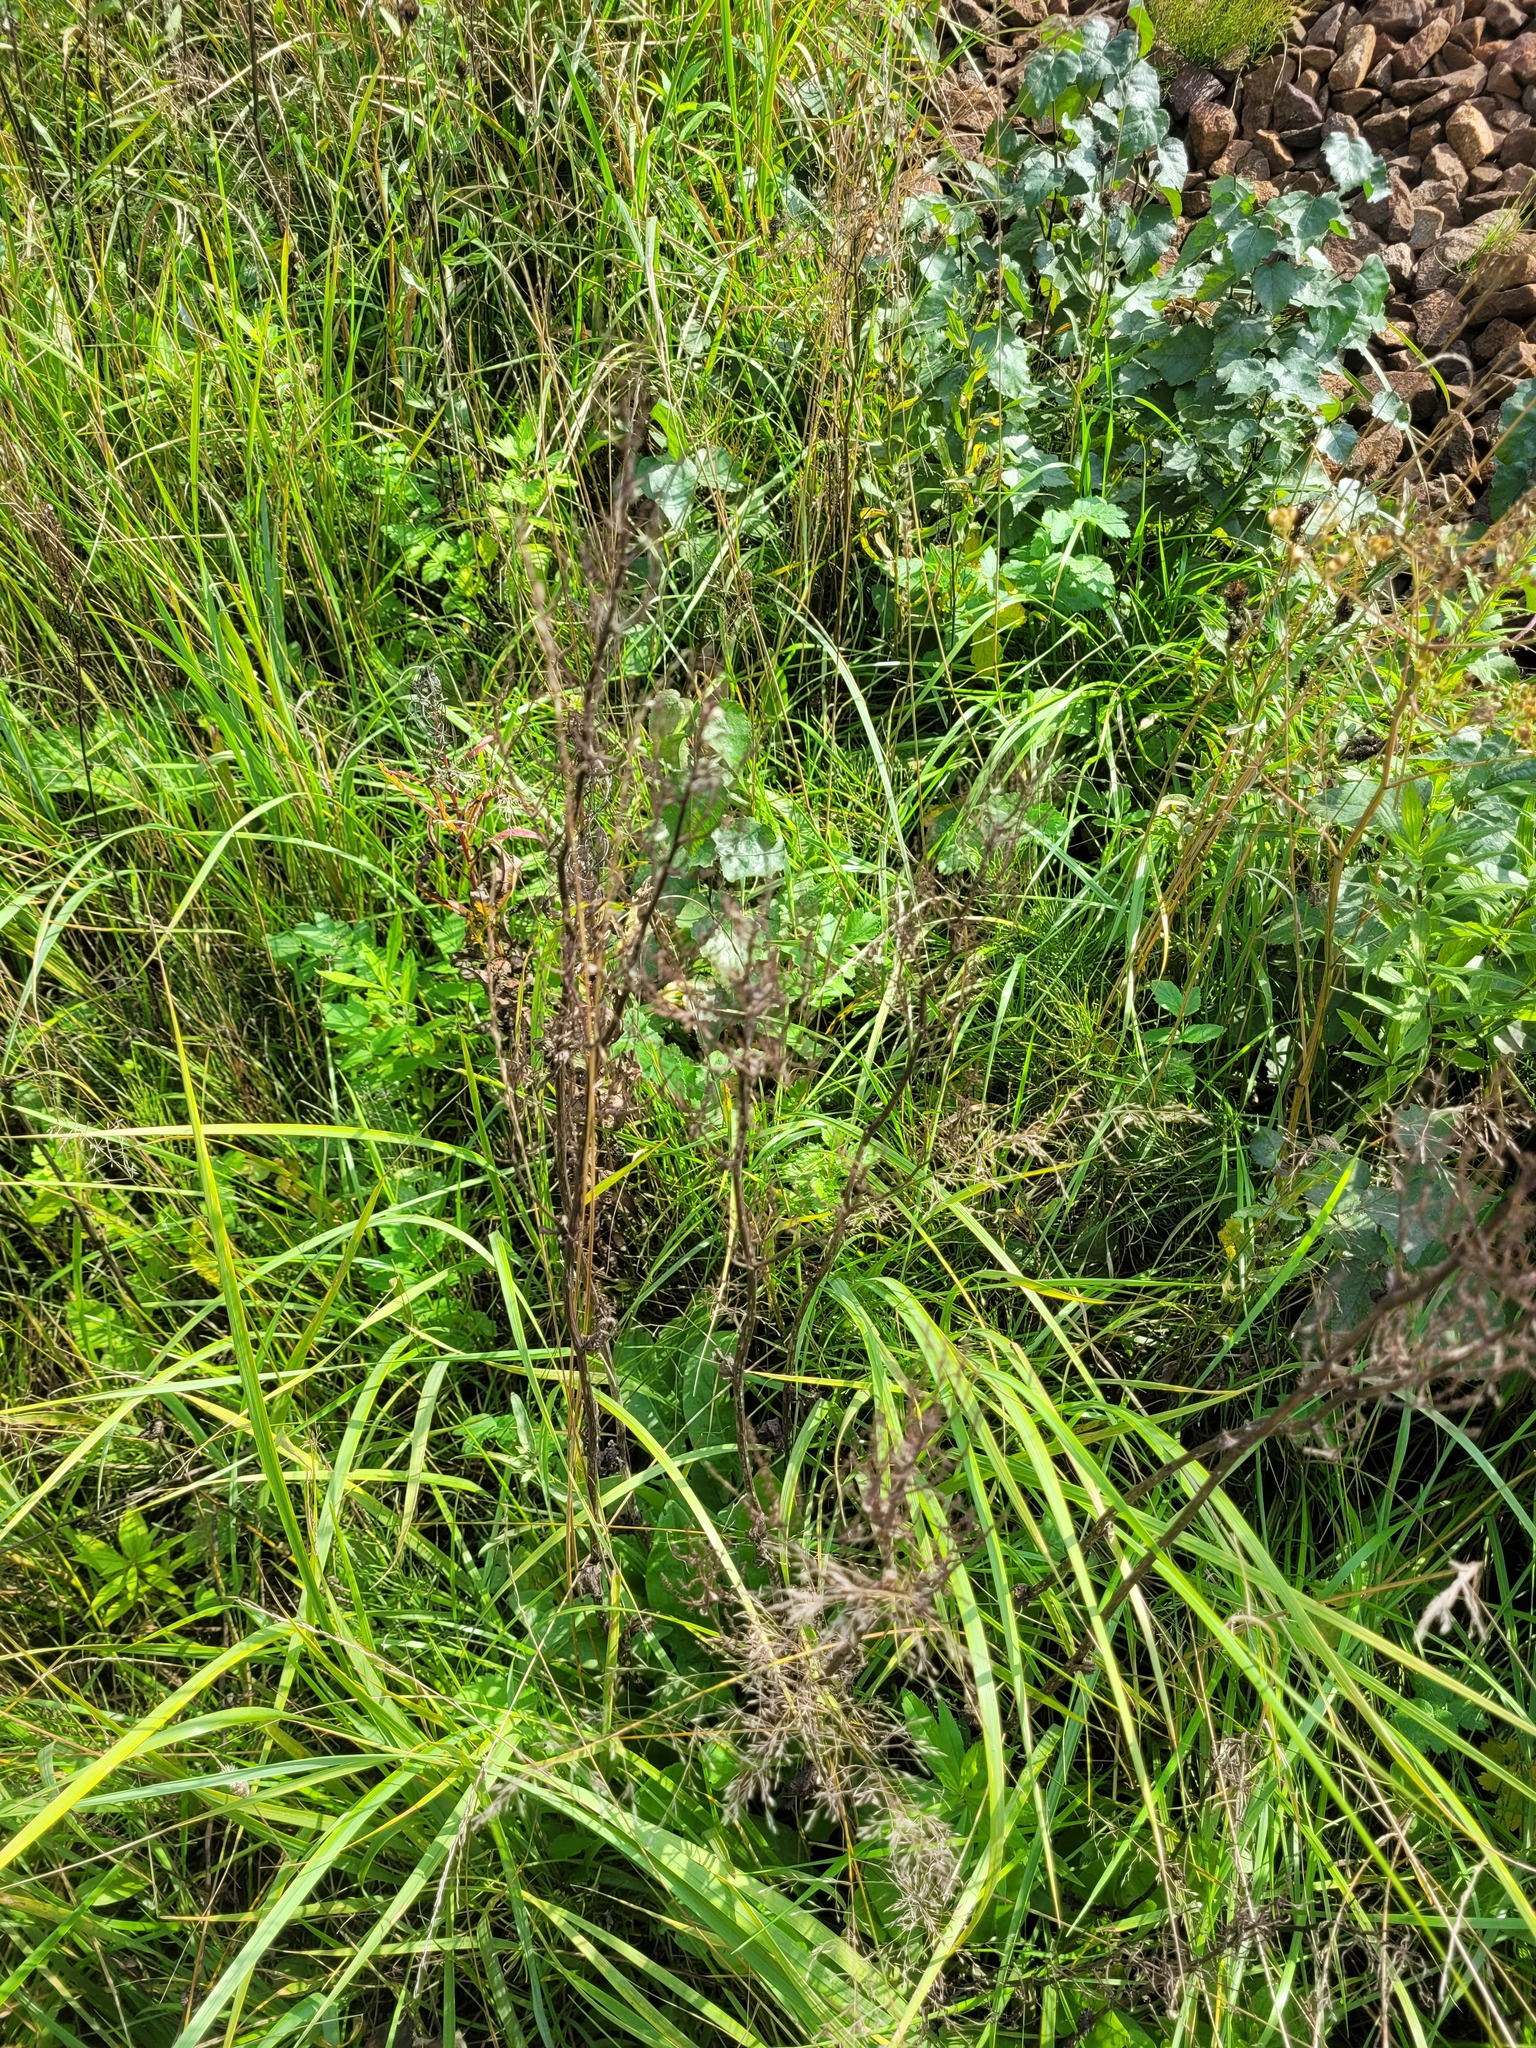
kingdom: Plantae
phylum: Tracheophyta
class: Magnoliopsida
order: Caryophyllales
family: Polygonaceae
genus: Rumex
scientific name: Rumex thyrsiflorus
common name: Garden sorrel
